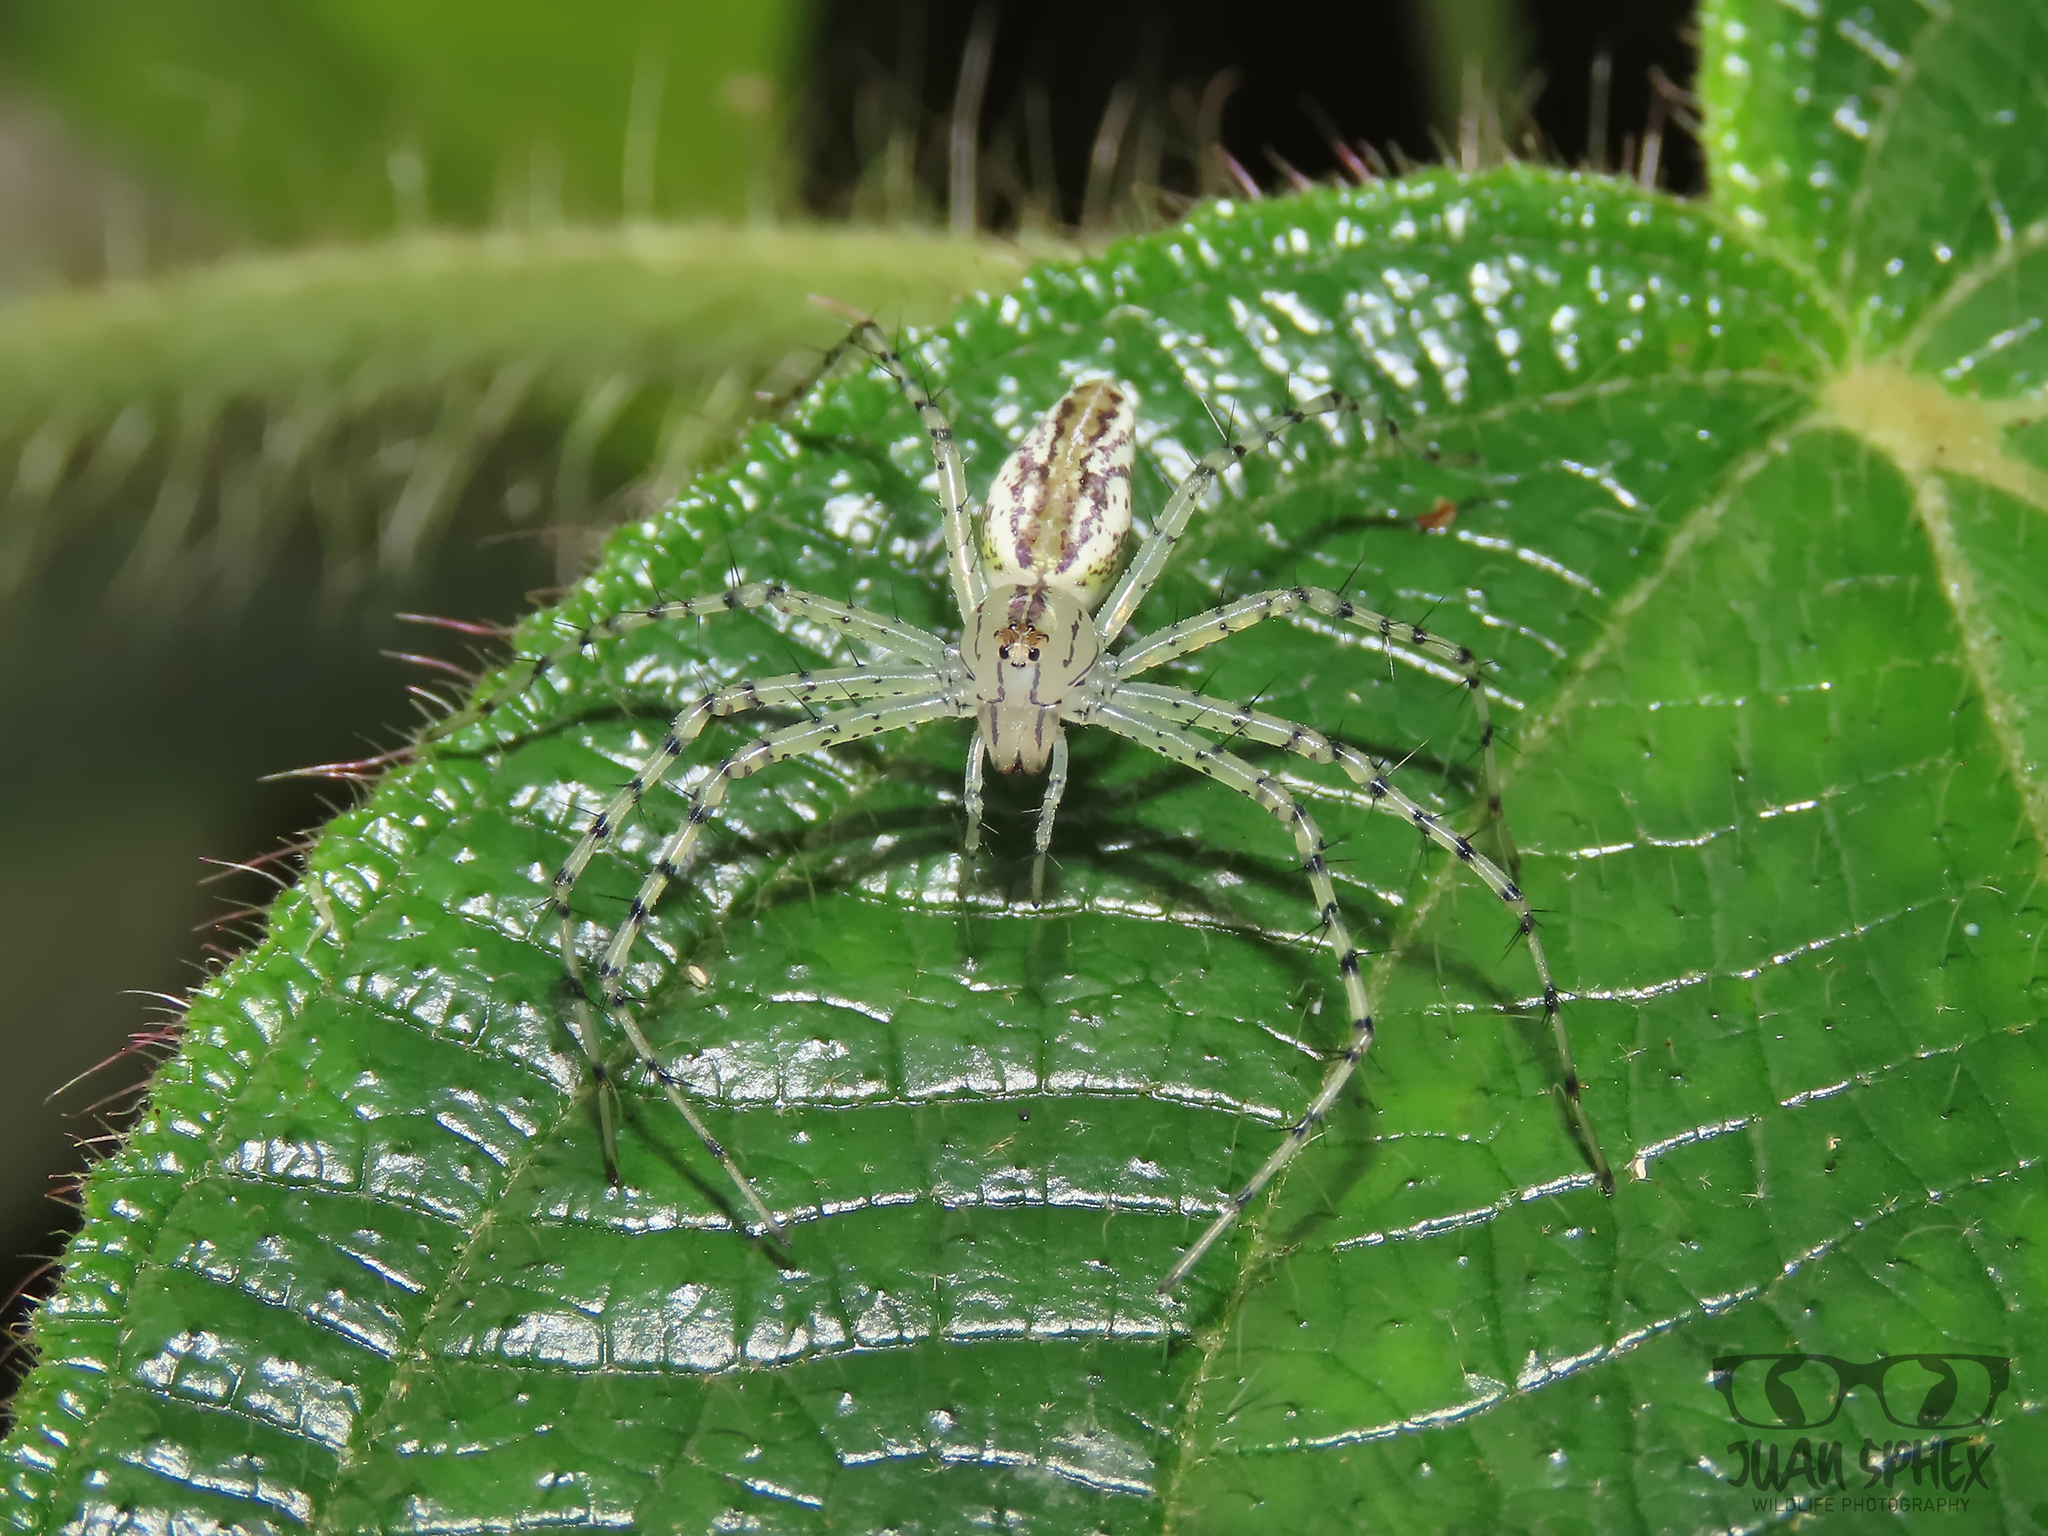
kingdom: Animalia
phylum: Arthropoda
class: Arachnida
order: Araneae
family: Oxyopidae
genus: Peucetia
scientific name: Peucetia rubrolineata
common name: Lynx spiders
